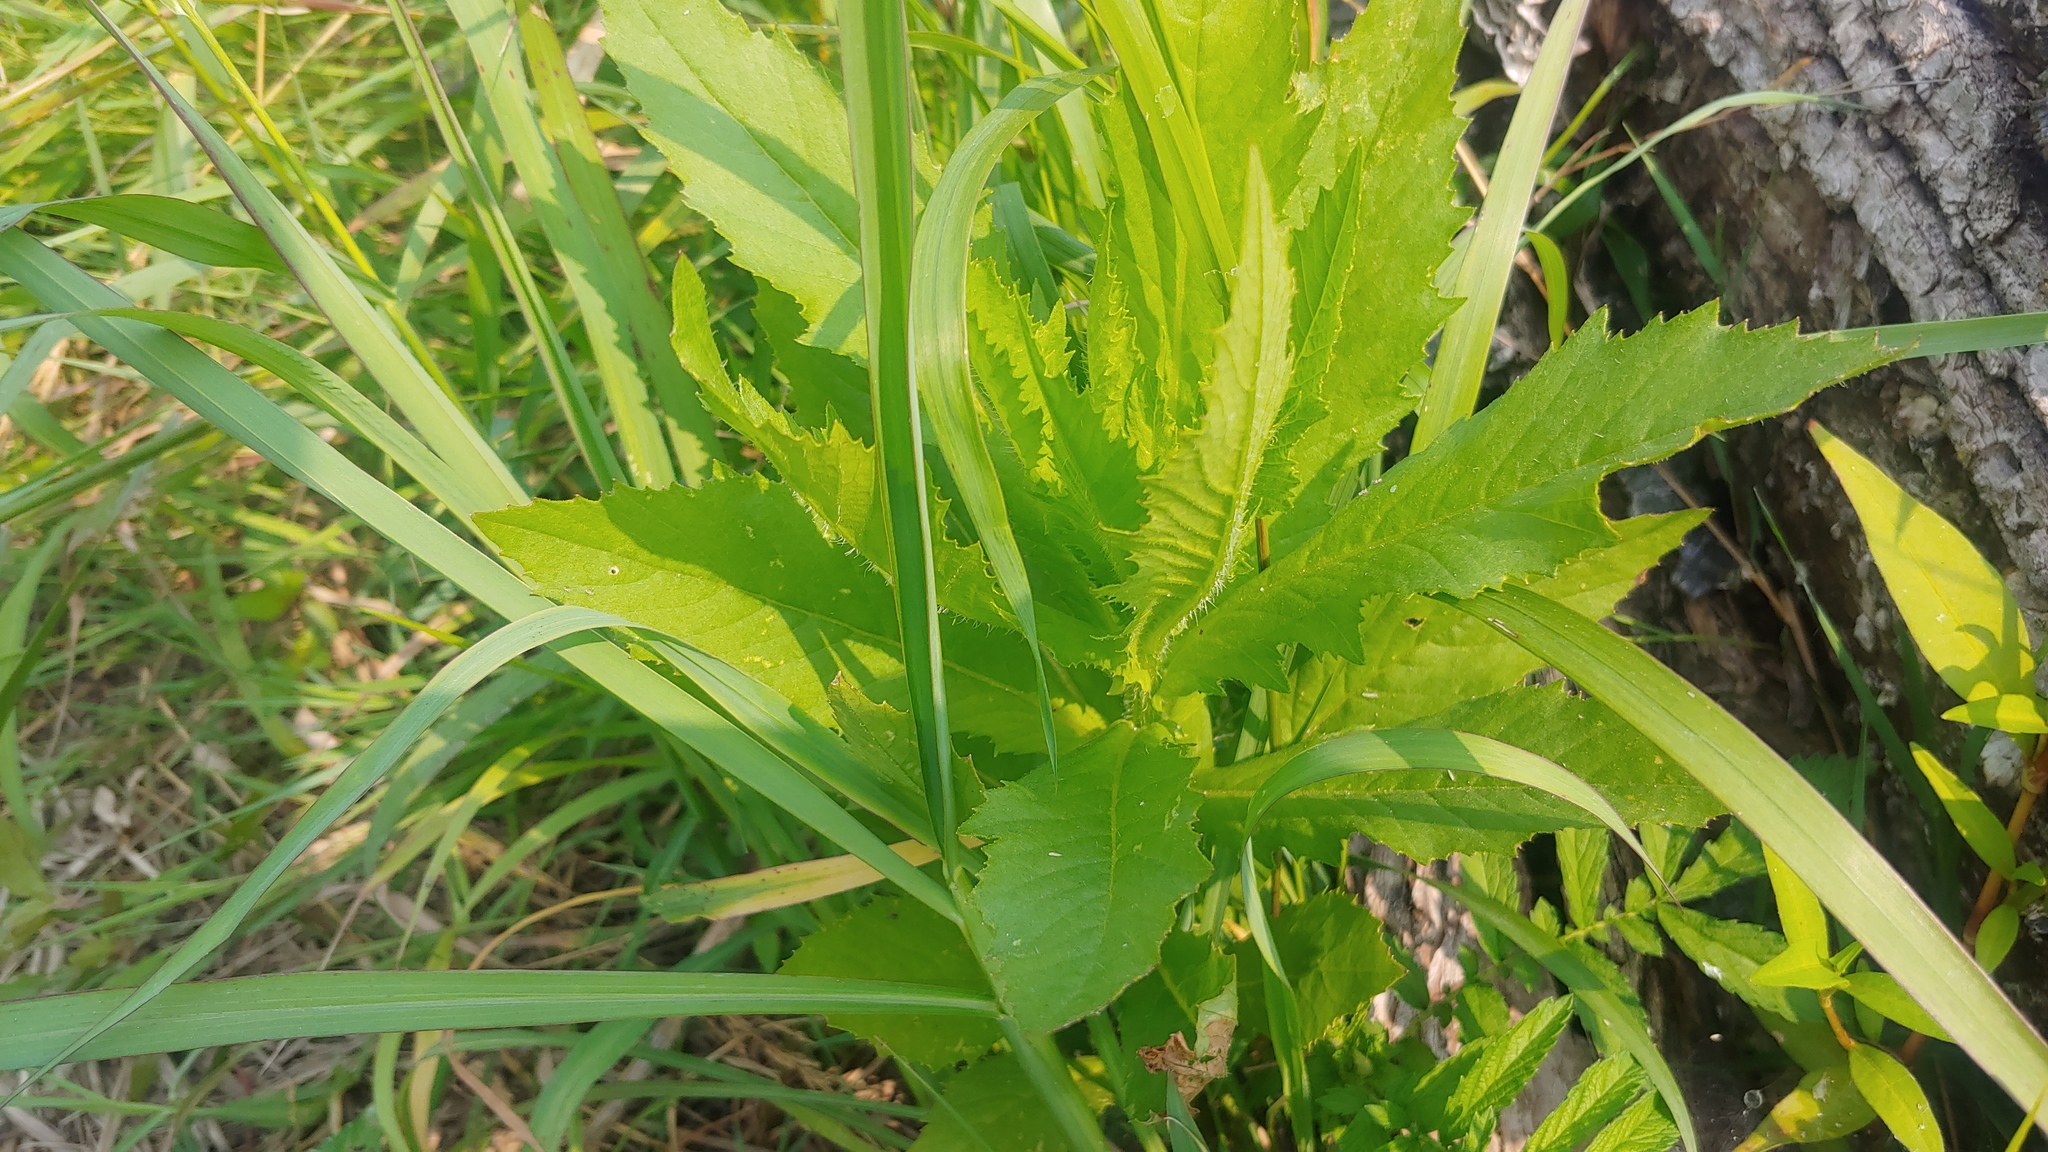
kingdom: Plantae
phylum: Tracheophyta
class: Magnoliopsida
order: Asterales
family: Asteraceae
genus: Erechtites
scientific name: Erechtites hieraciifolius
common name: American burnweed
